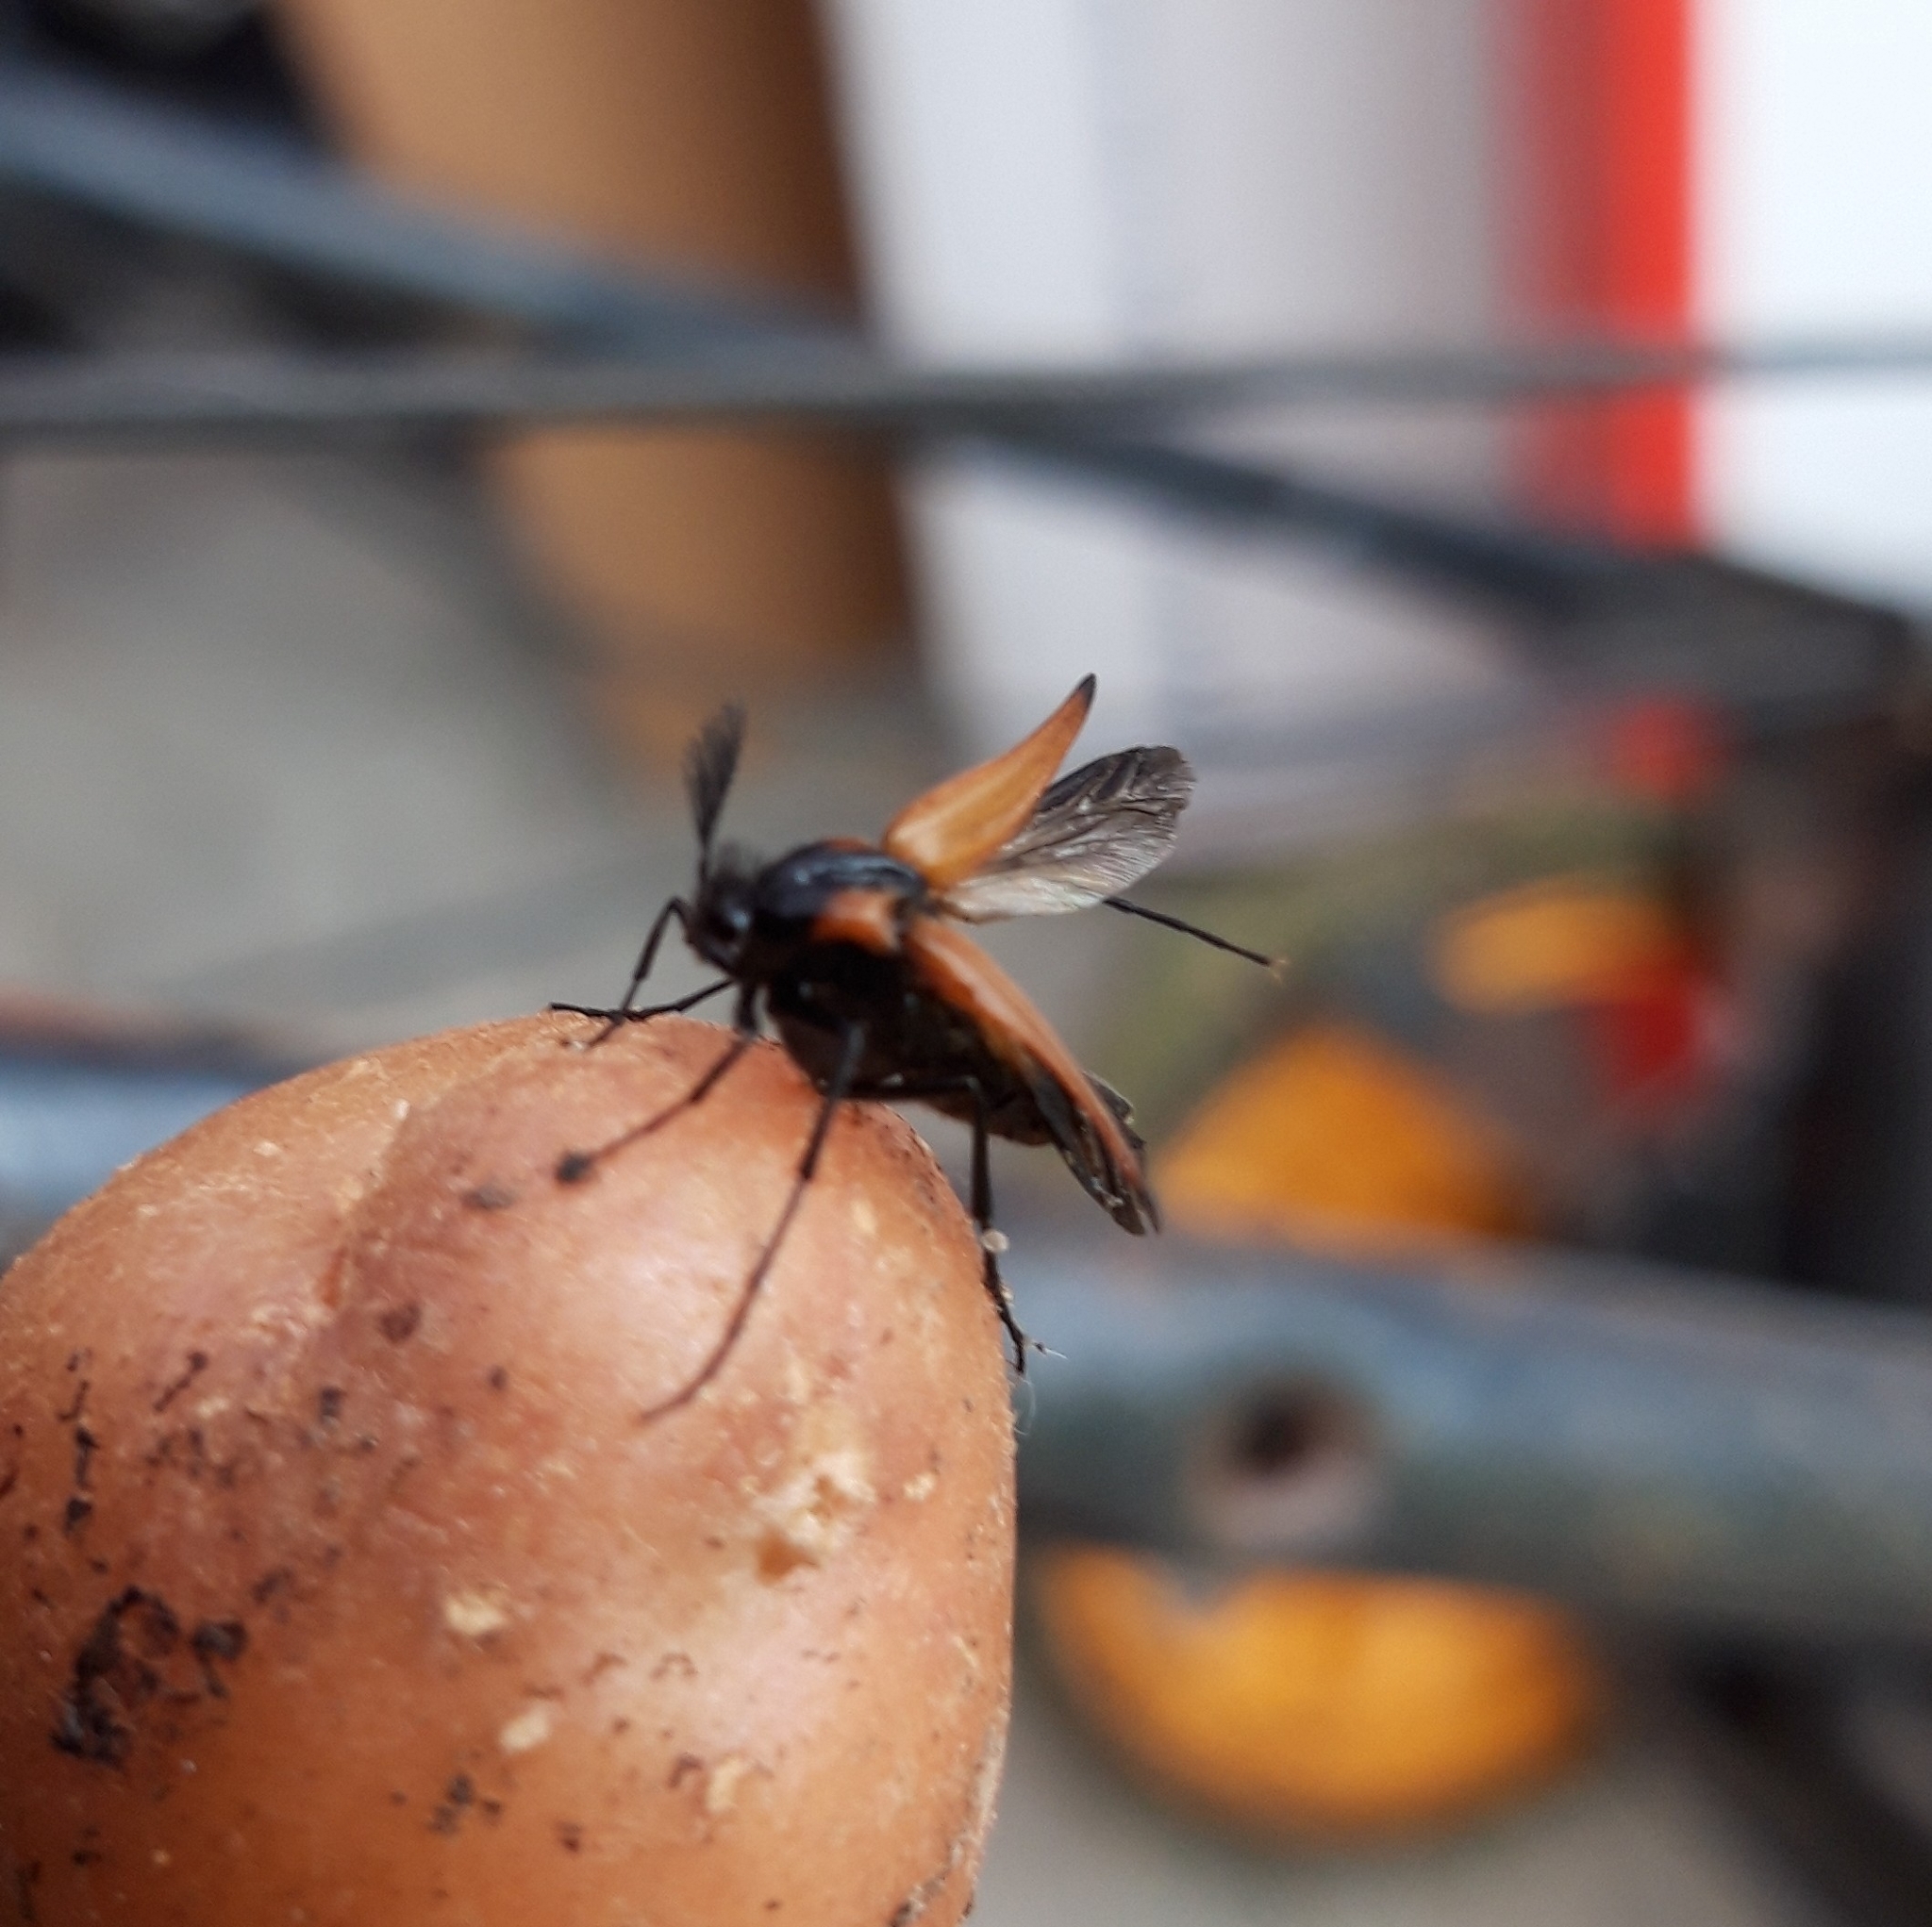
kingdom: Animalia
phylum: Arthropoda
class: Insecta
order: Coleoptera
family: Ripiphoridae
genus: Metoecus
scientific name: Metoecus paradoxus
